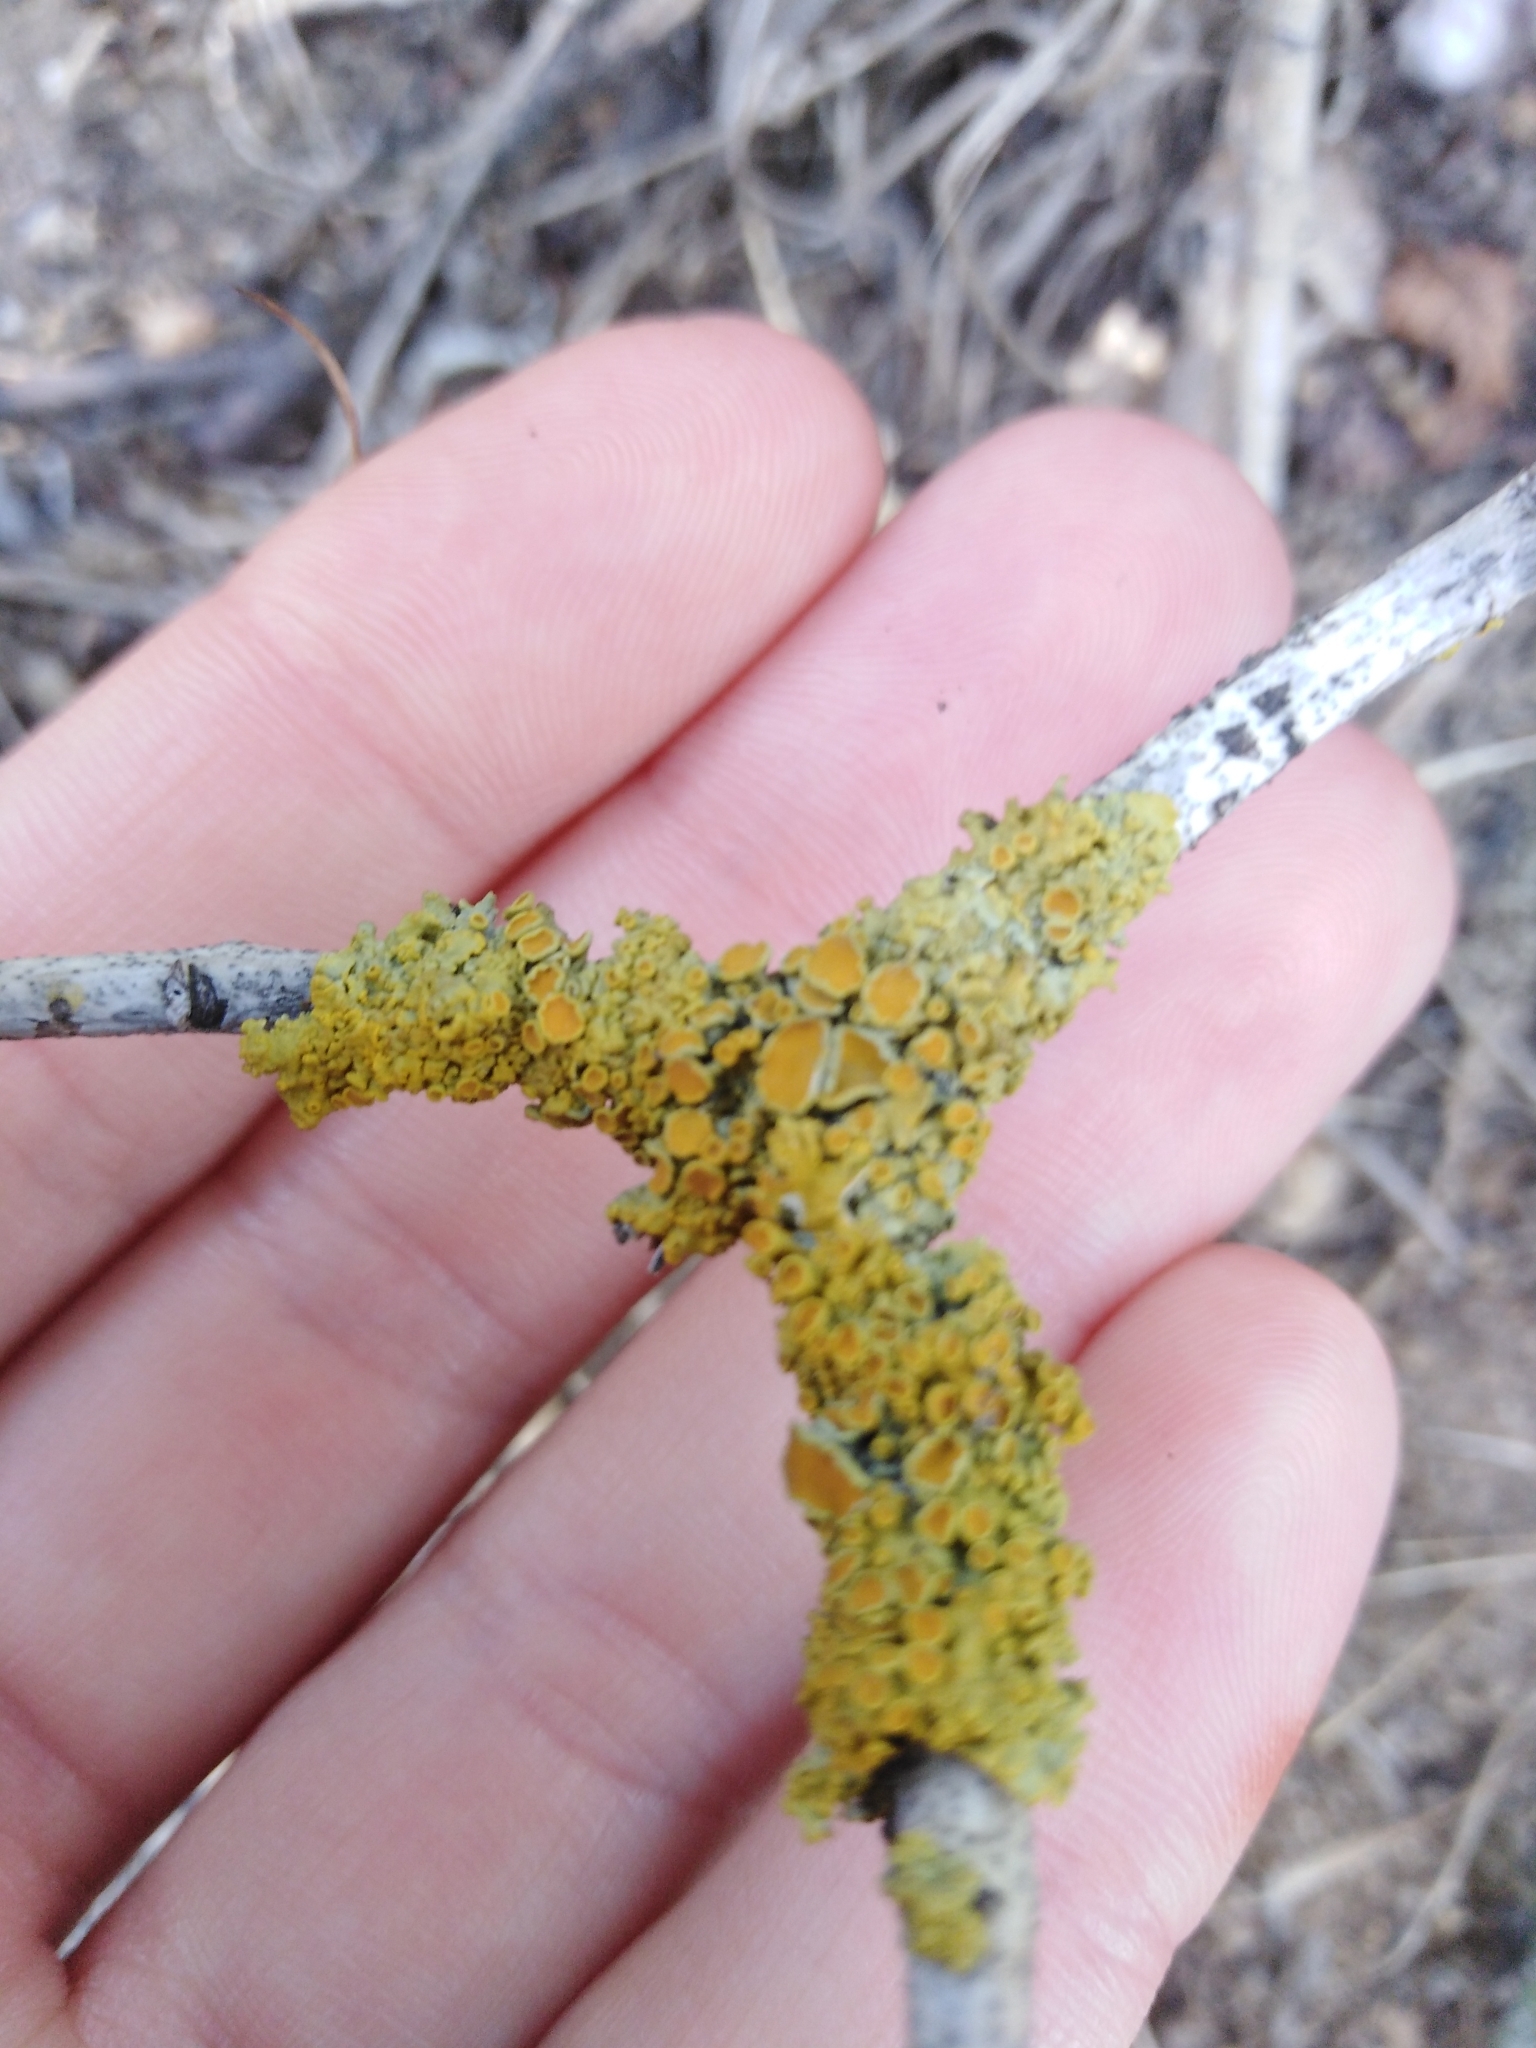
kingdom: Fungi
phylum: Ascomycota
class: Lecanoromycetes
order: Teloschistales
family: Teloschistaceae
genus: Xanthoria
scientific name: Xanthoria parietina
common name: Common orange lichen
